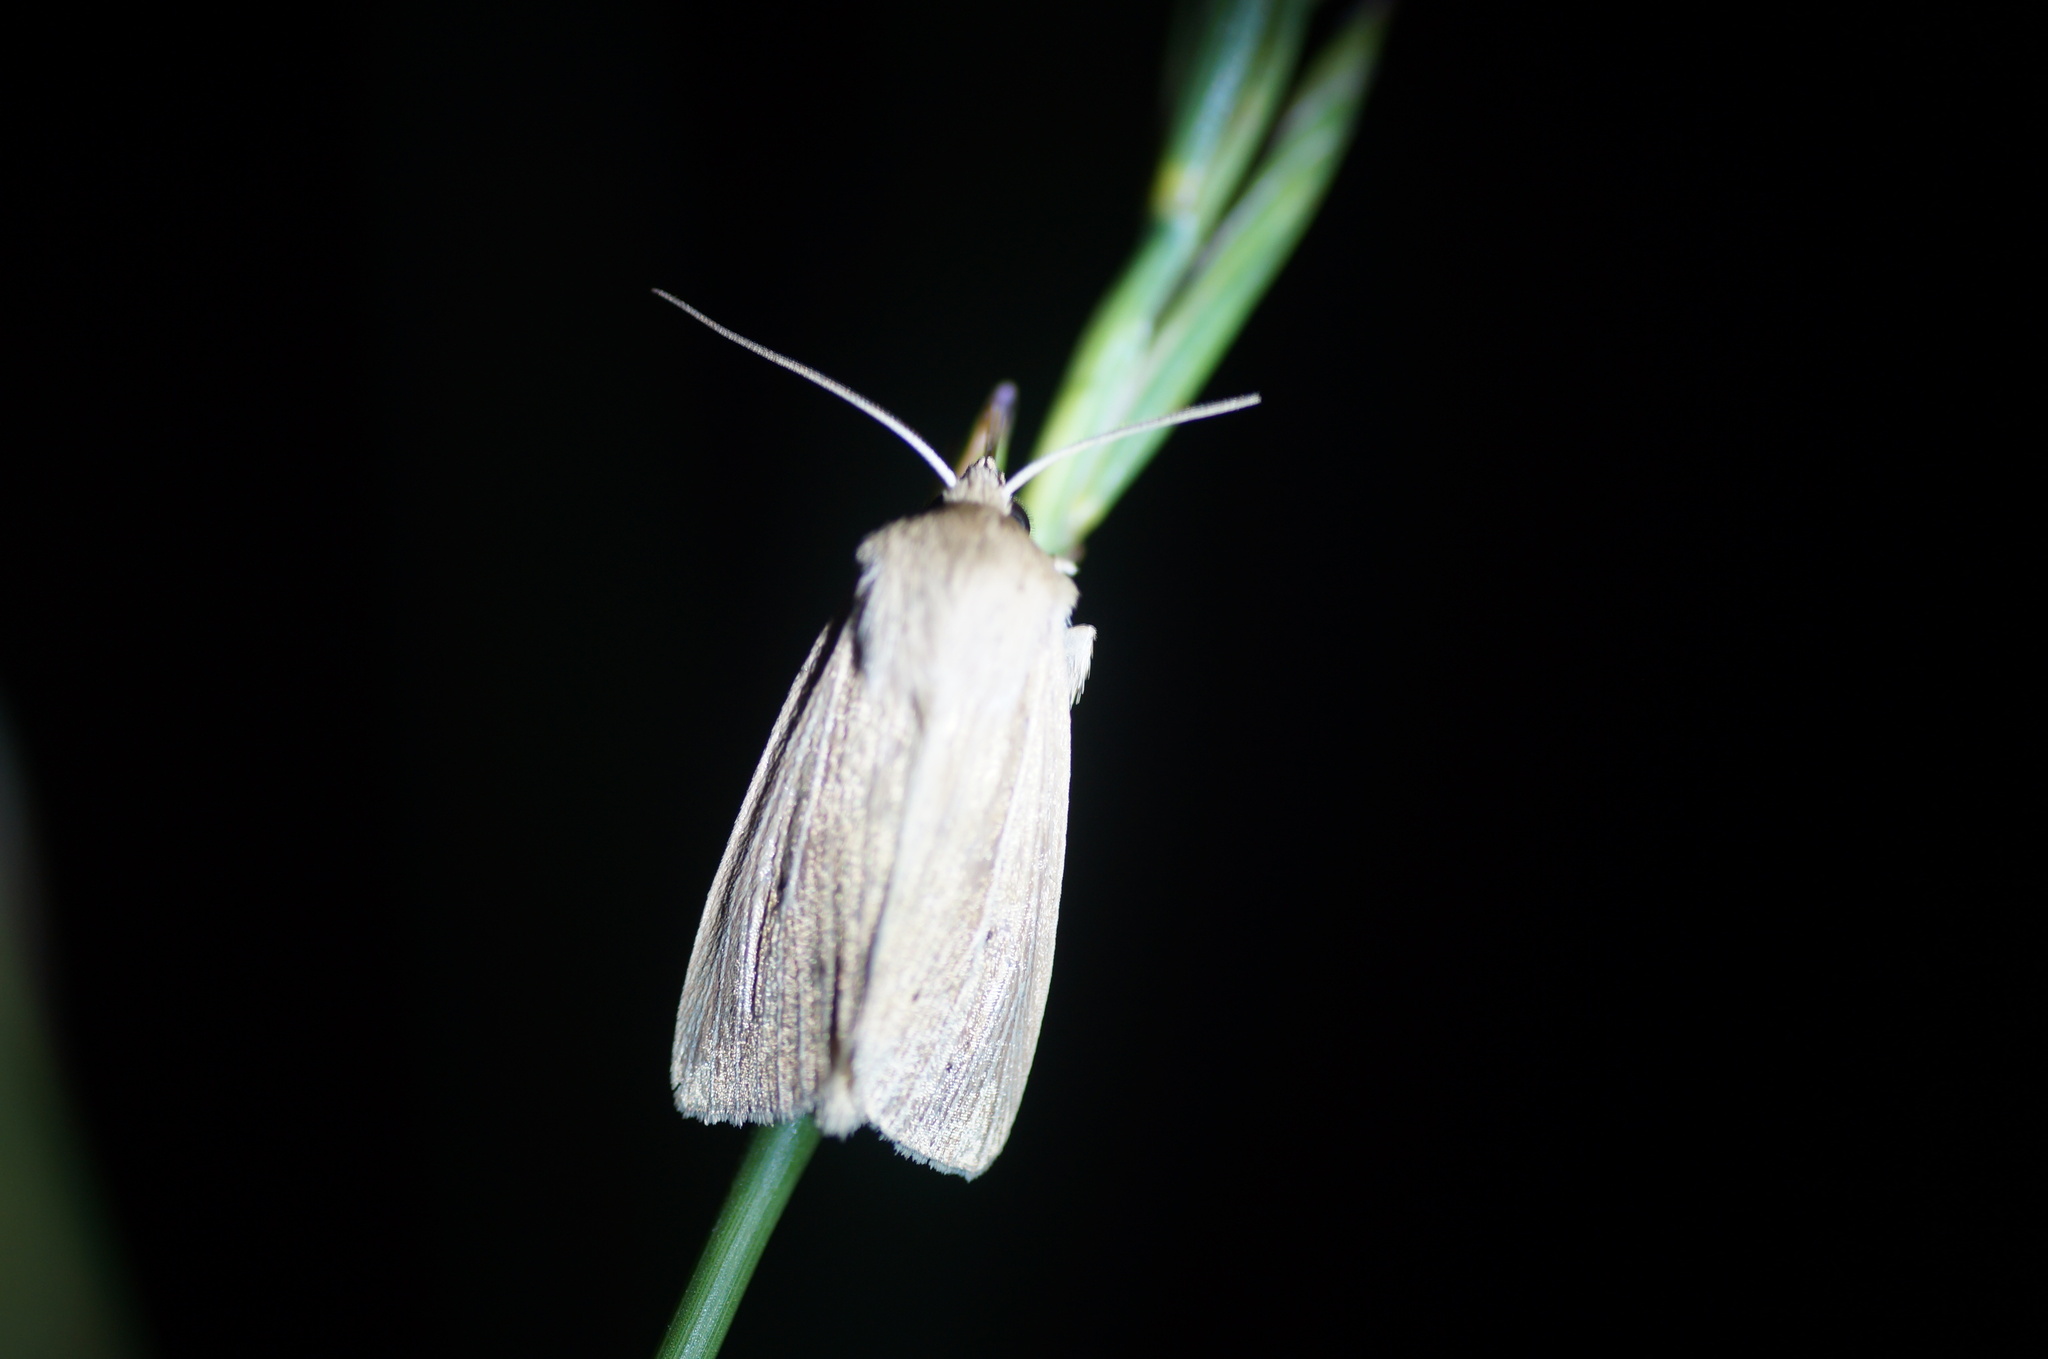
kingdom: Animalia
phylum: Arthropoda
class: Insecta
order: Lepidoptera
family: Noctuidae
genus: Mythimna
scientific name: Mythimna impura
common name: Smoky wainscot
